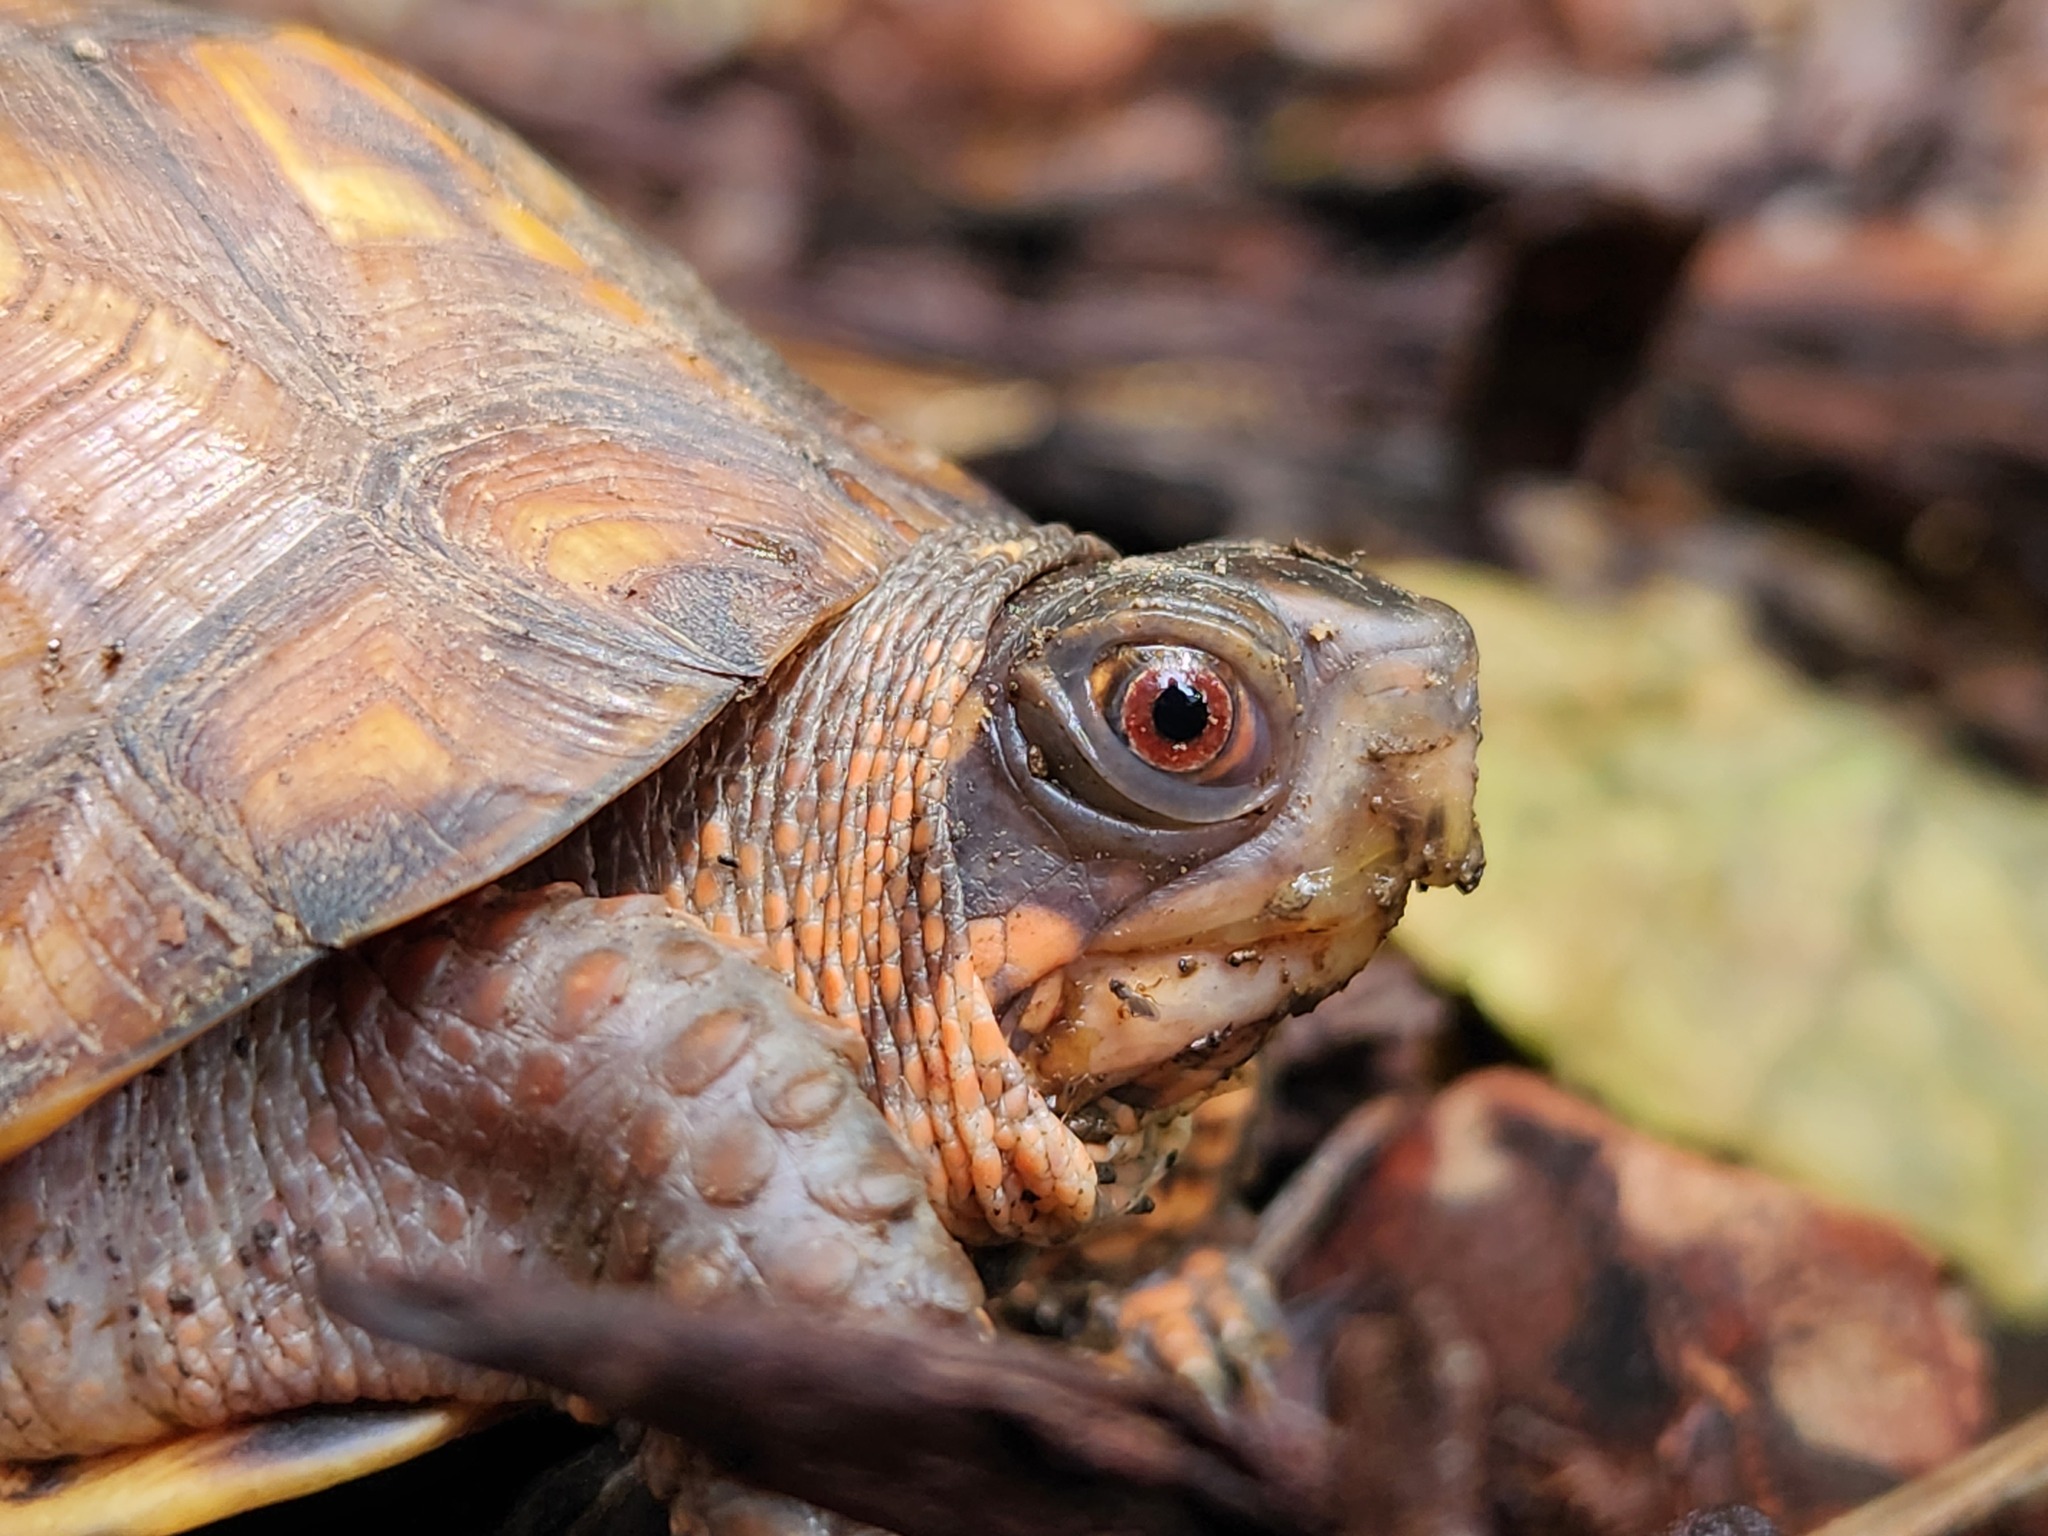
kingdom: Animalia
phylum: Chordata
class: Testudines
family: Emydidae
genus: Terrapene
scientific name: Terrapene carolina
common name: Common box turtle
